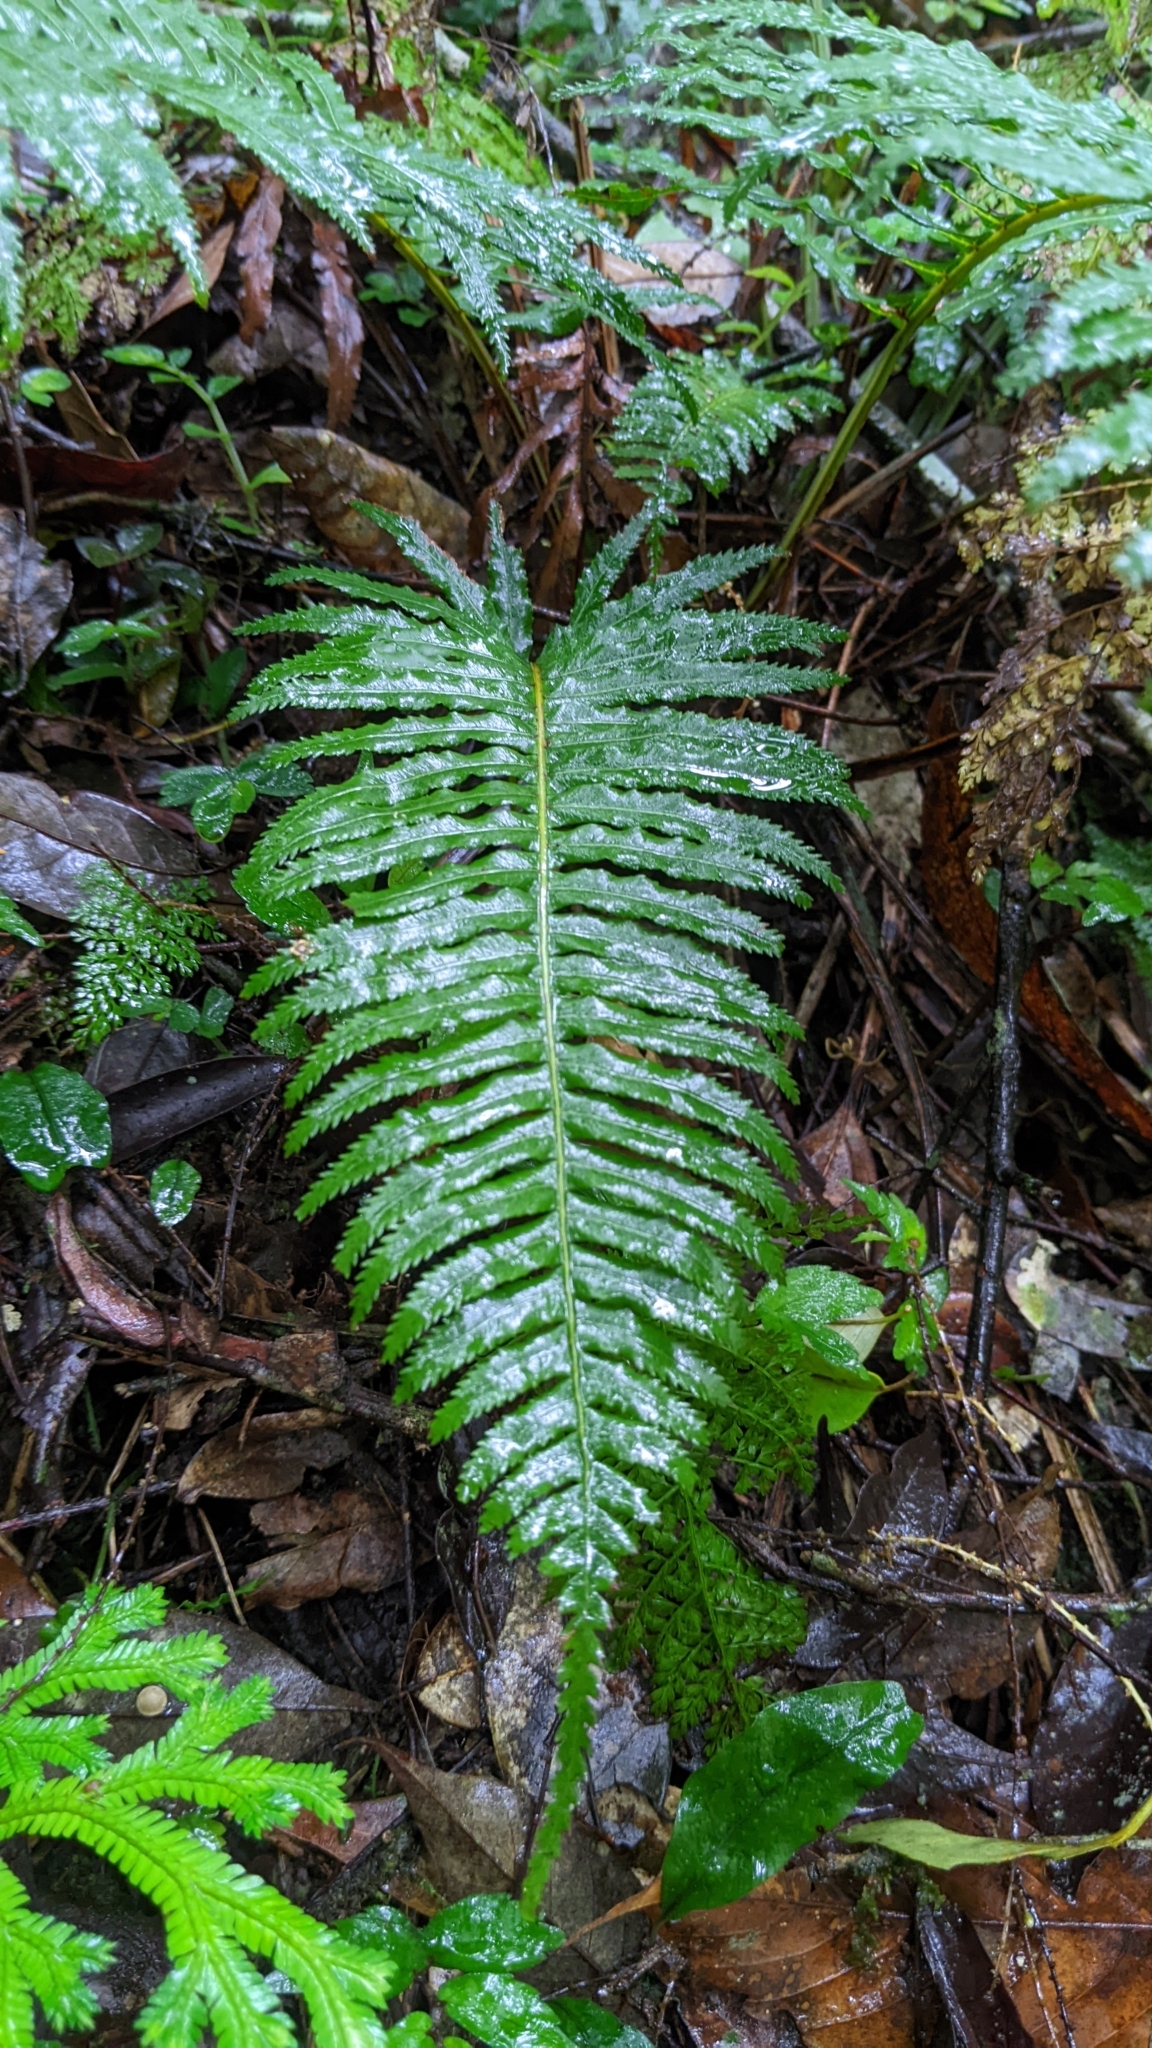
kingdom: Plantae
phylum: Tracheophyta
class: Polypodiopsida
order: Cyatheales
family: Plagiogyriaceae
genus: Plagiogyria
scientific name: Plagiogyria falcata
